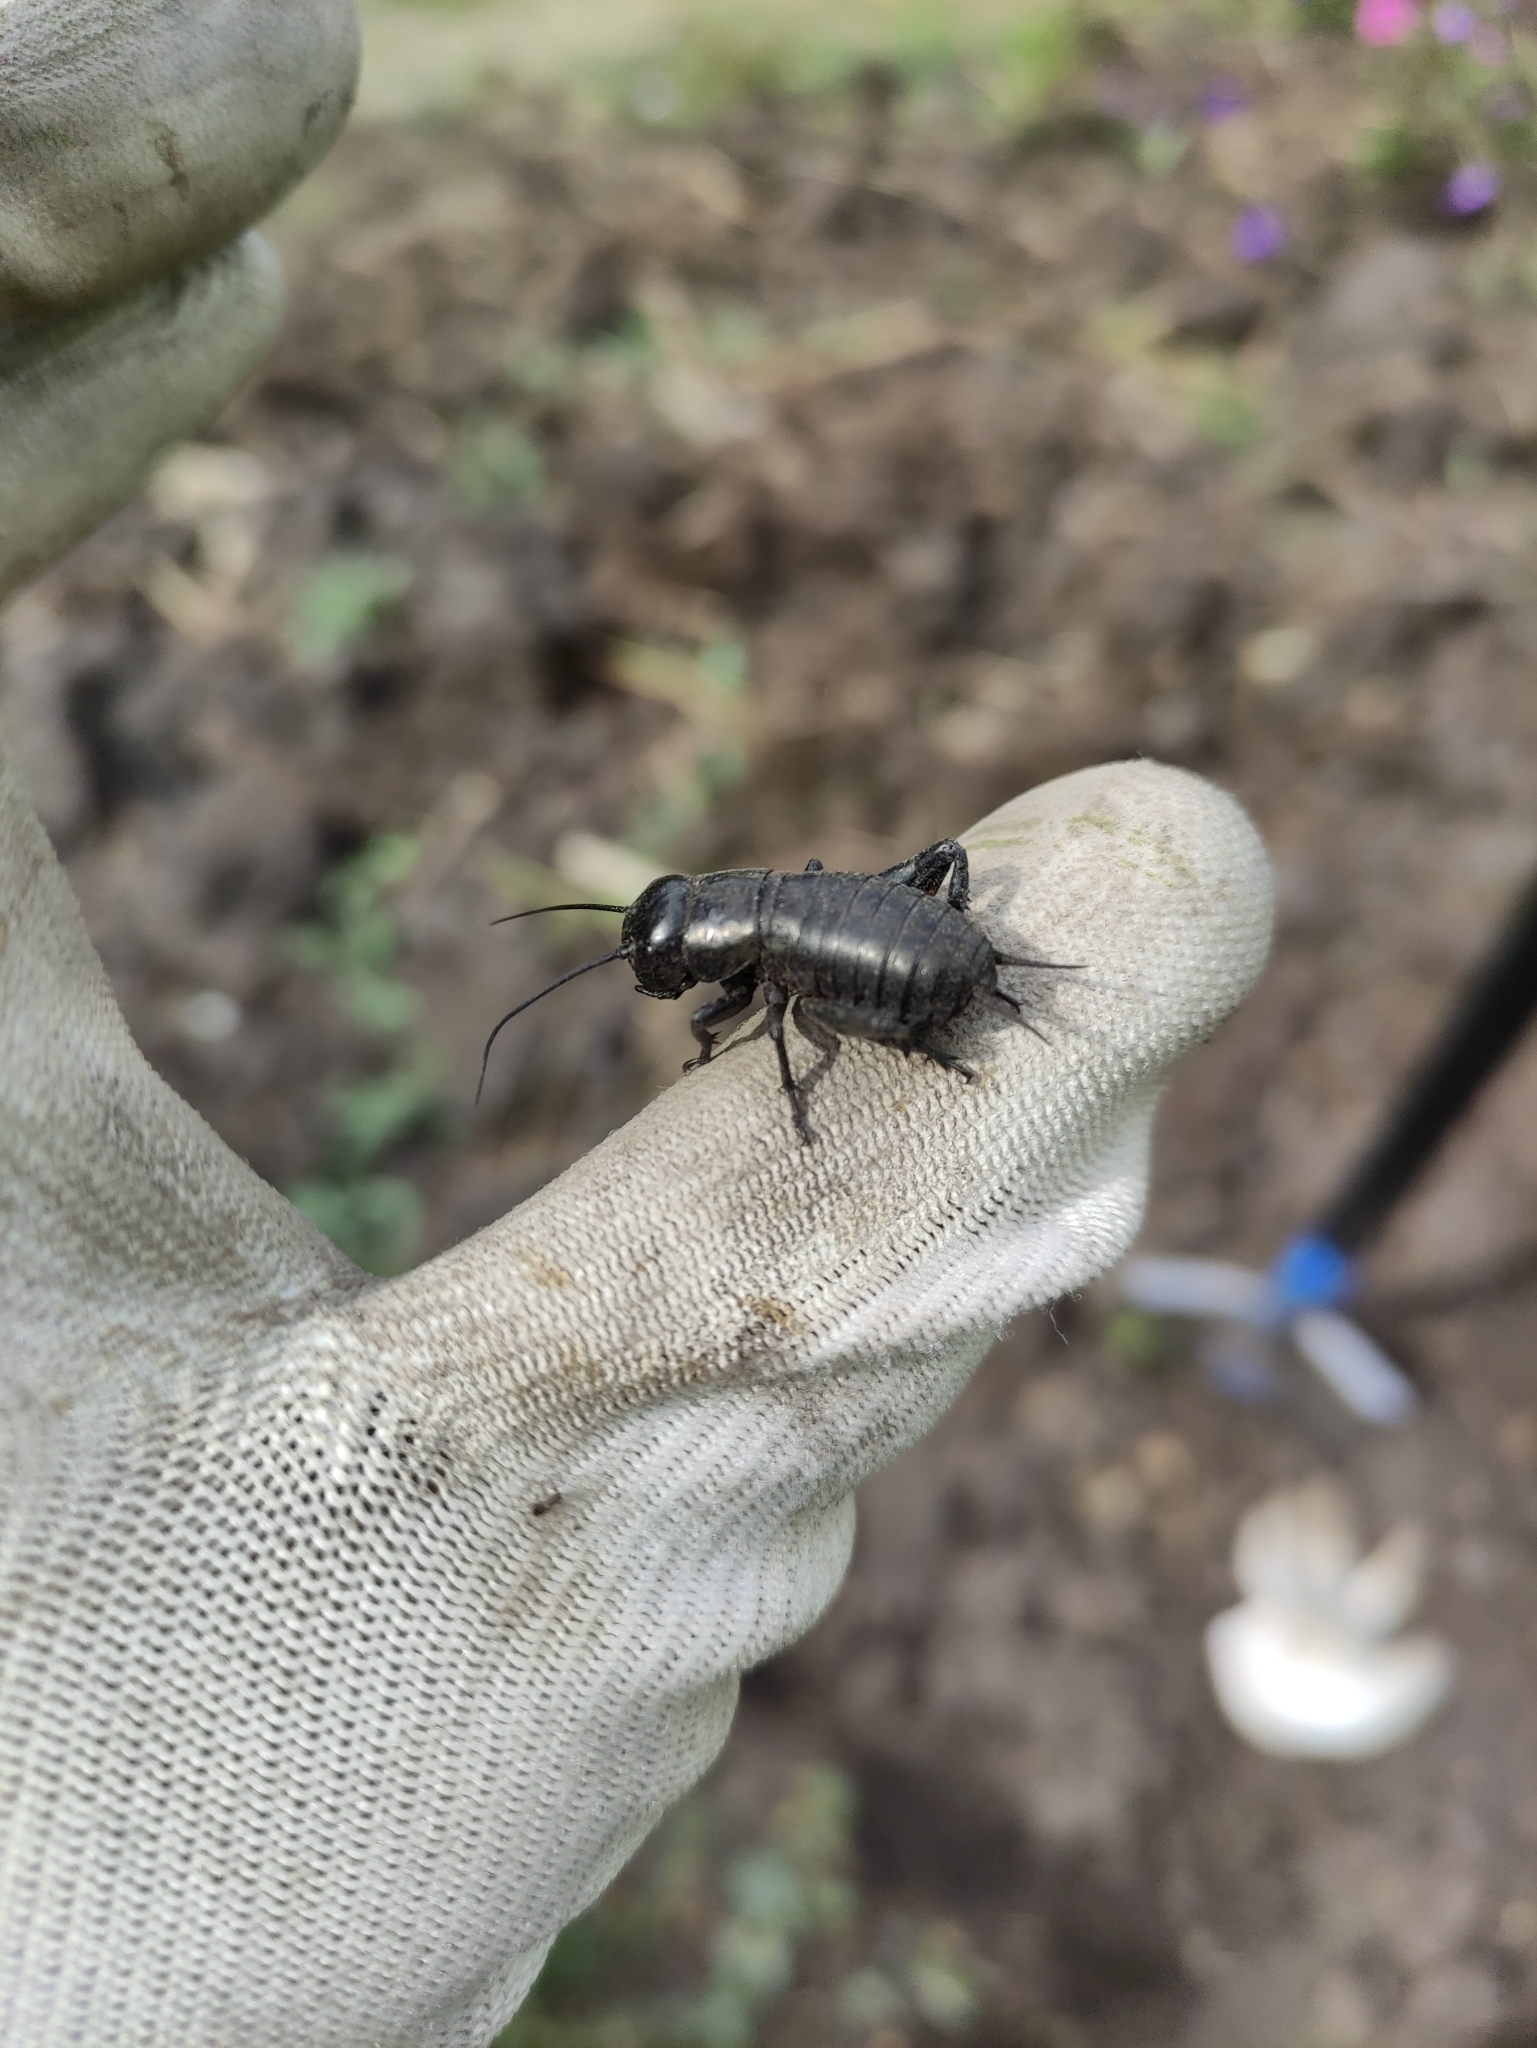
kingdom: Animalia
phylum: Arthropoda
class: Insecta
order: Orthoptera
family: Gryllidae
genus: Gryllus
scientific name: Gryllus campestris
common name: Field cricket
